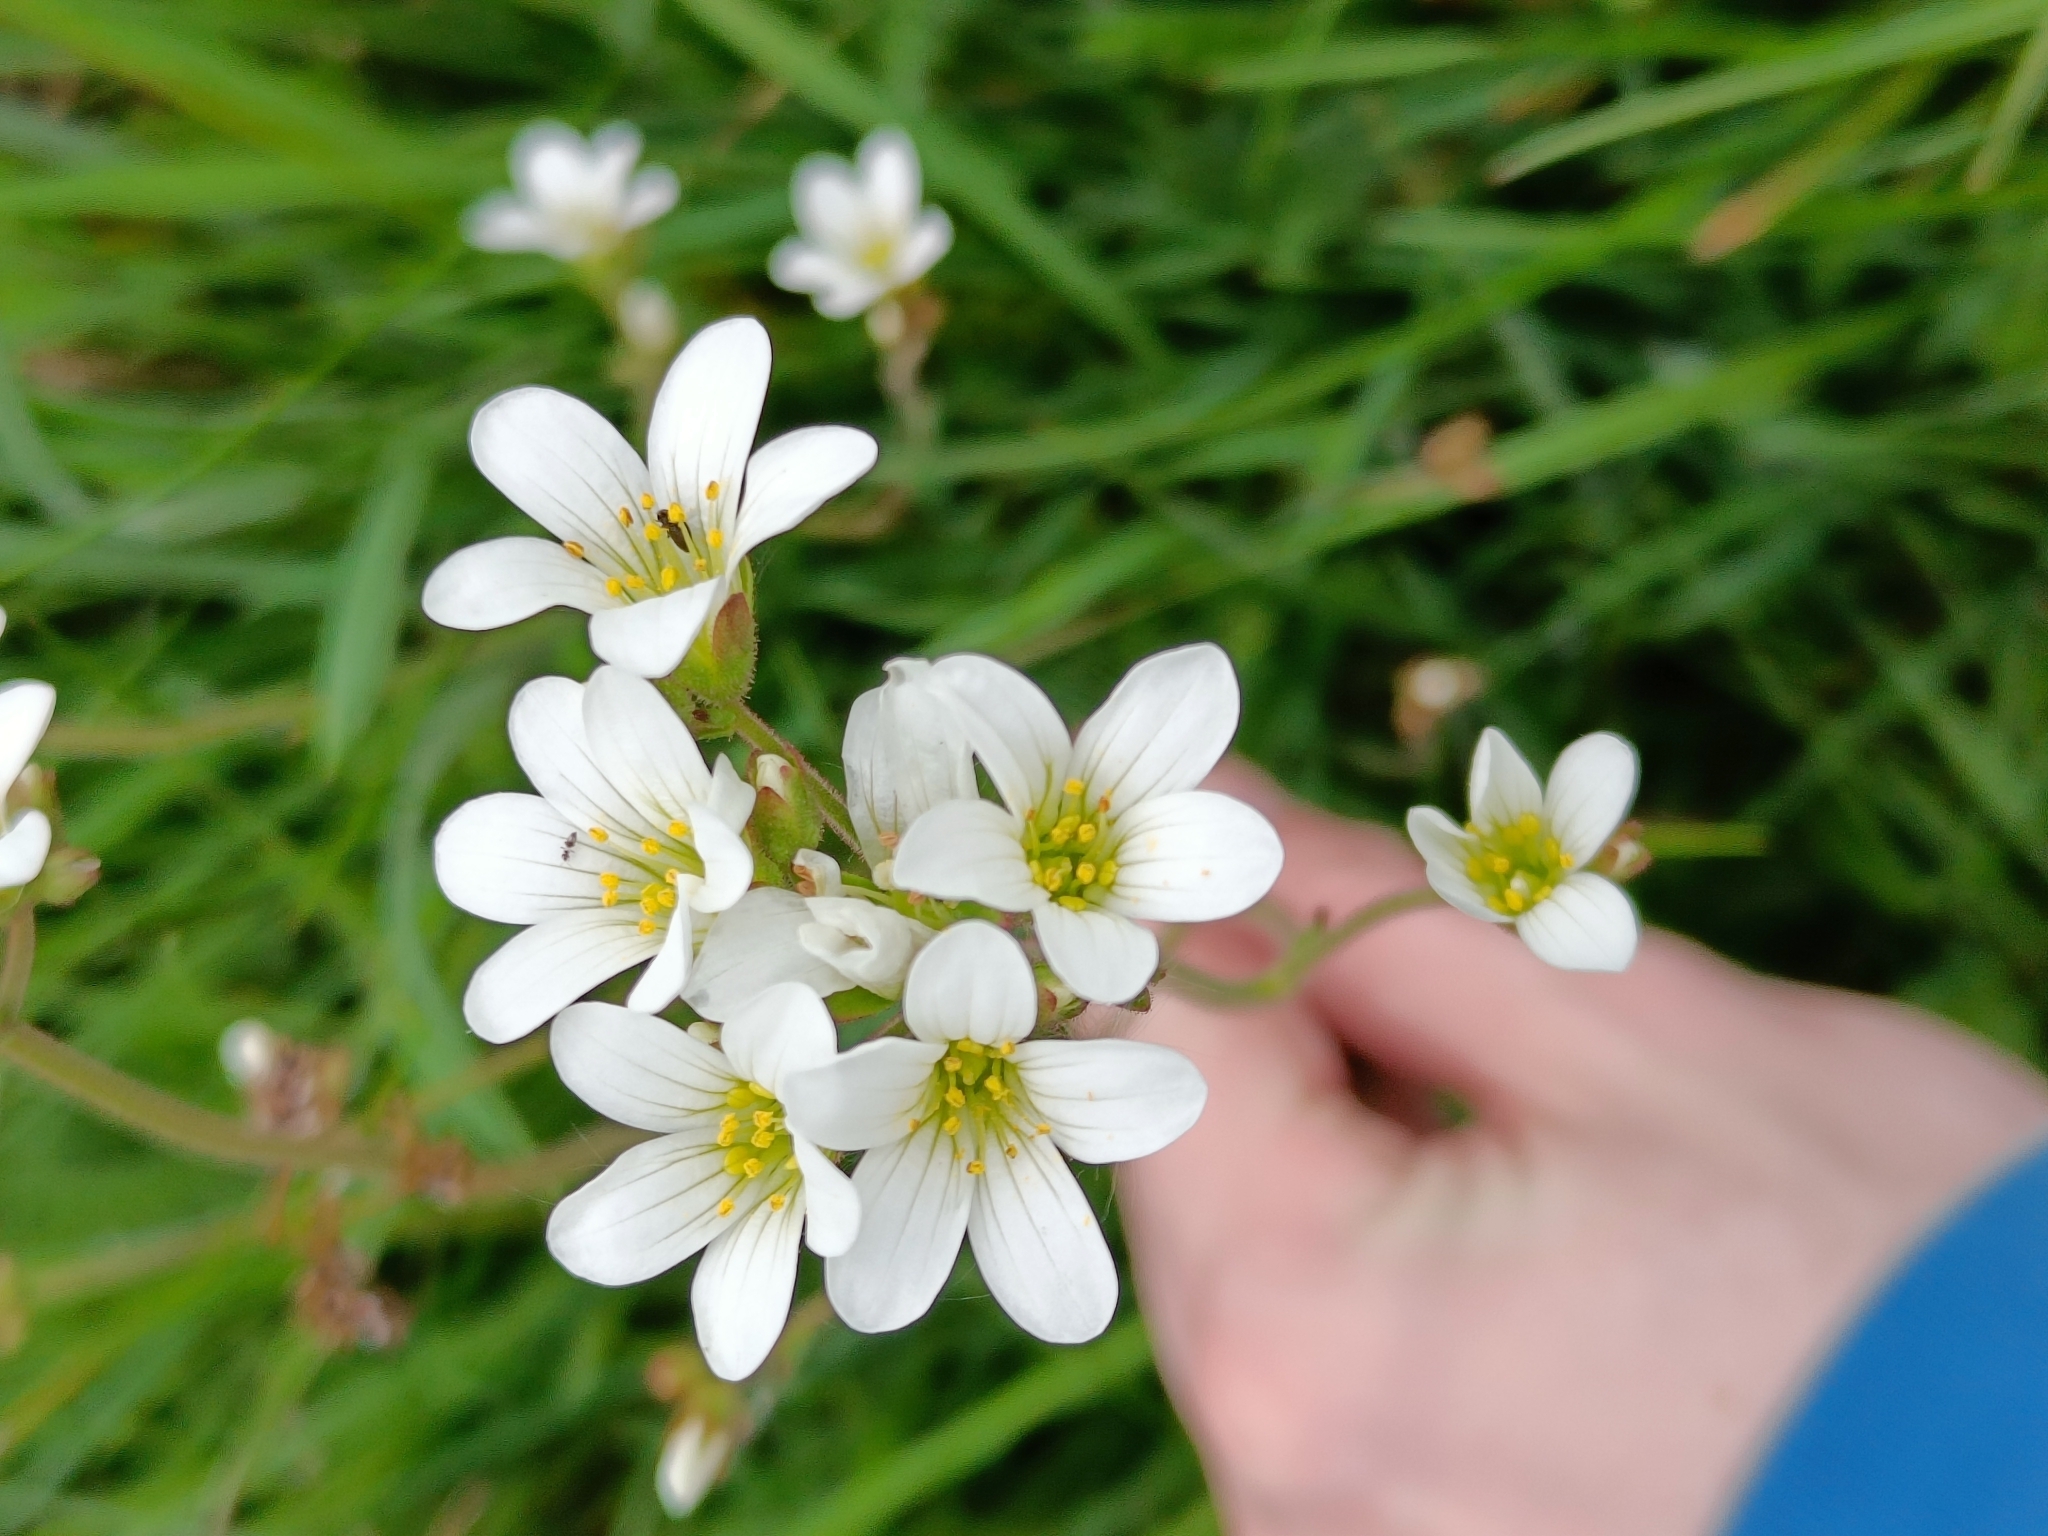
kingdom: Plantae
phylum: Tracheophyta
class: Magnoliopsida
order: Saxifragales
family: Saxifragaceae
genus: Saxifraga
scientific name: Saxifraga granulata
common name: Meadow saxifrage
